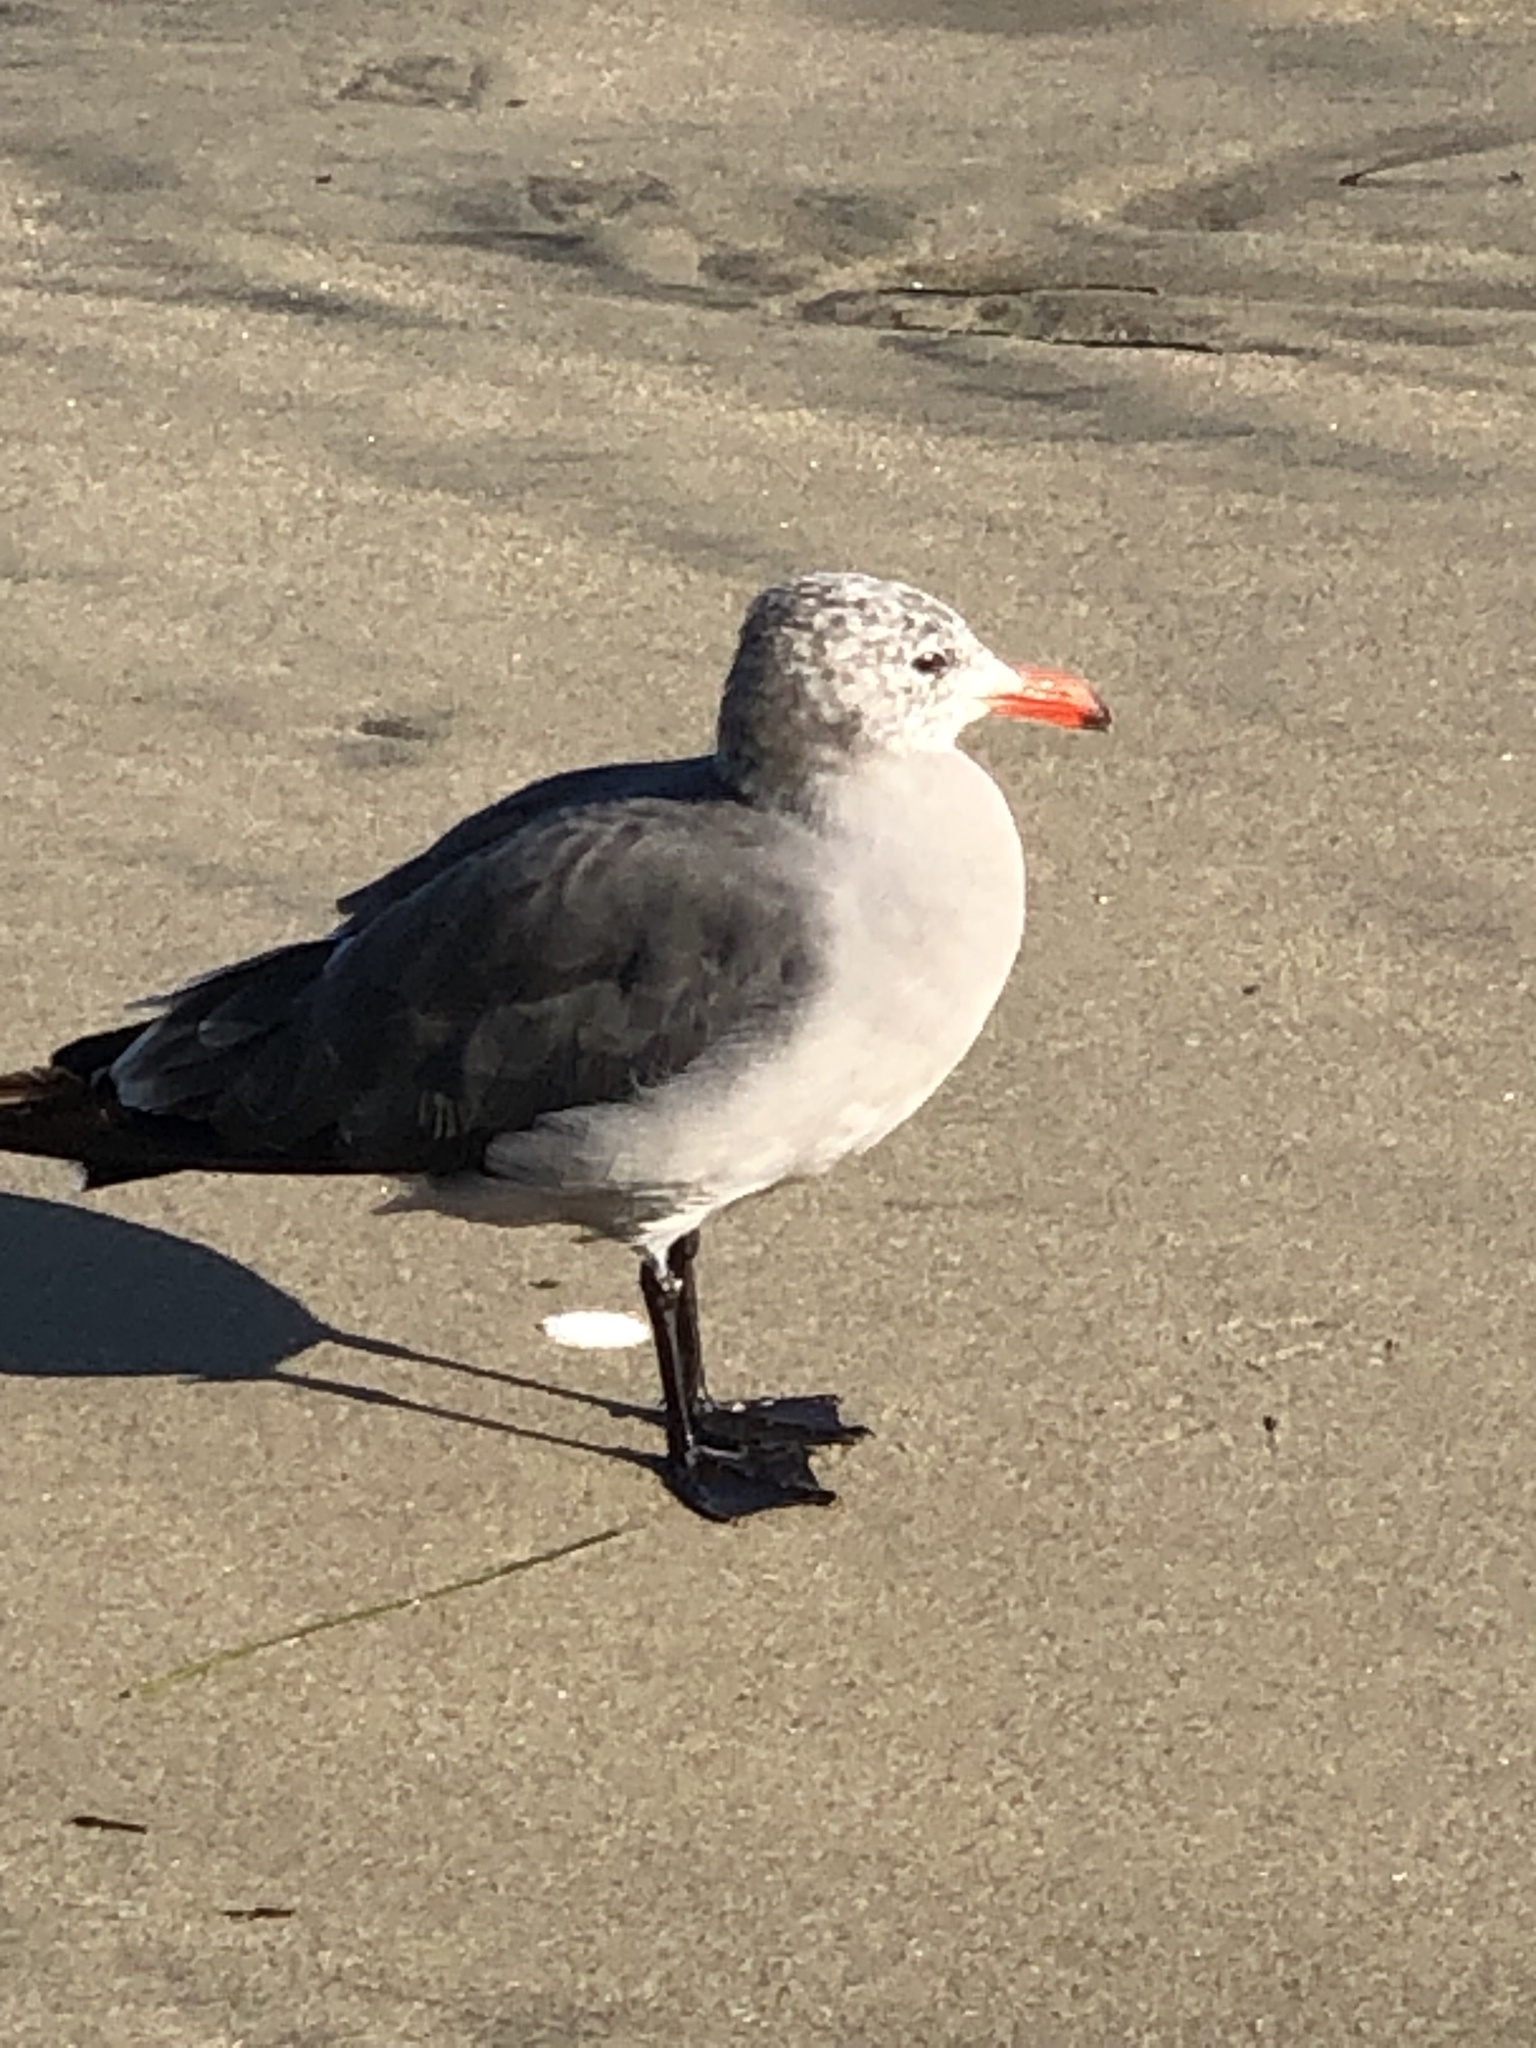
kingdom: Animalia
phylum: Chordata
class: Aves
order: Charadriiformes
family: Laridae
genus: Larus
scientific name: Larus heermanni
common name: Heermann's gull
